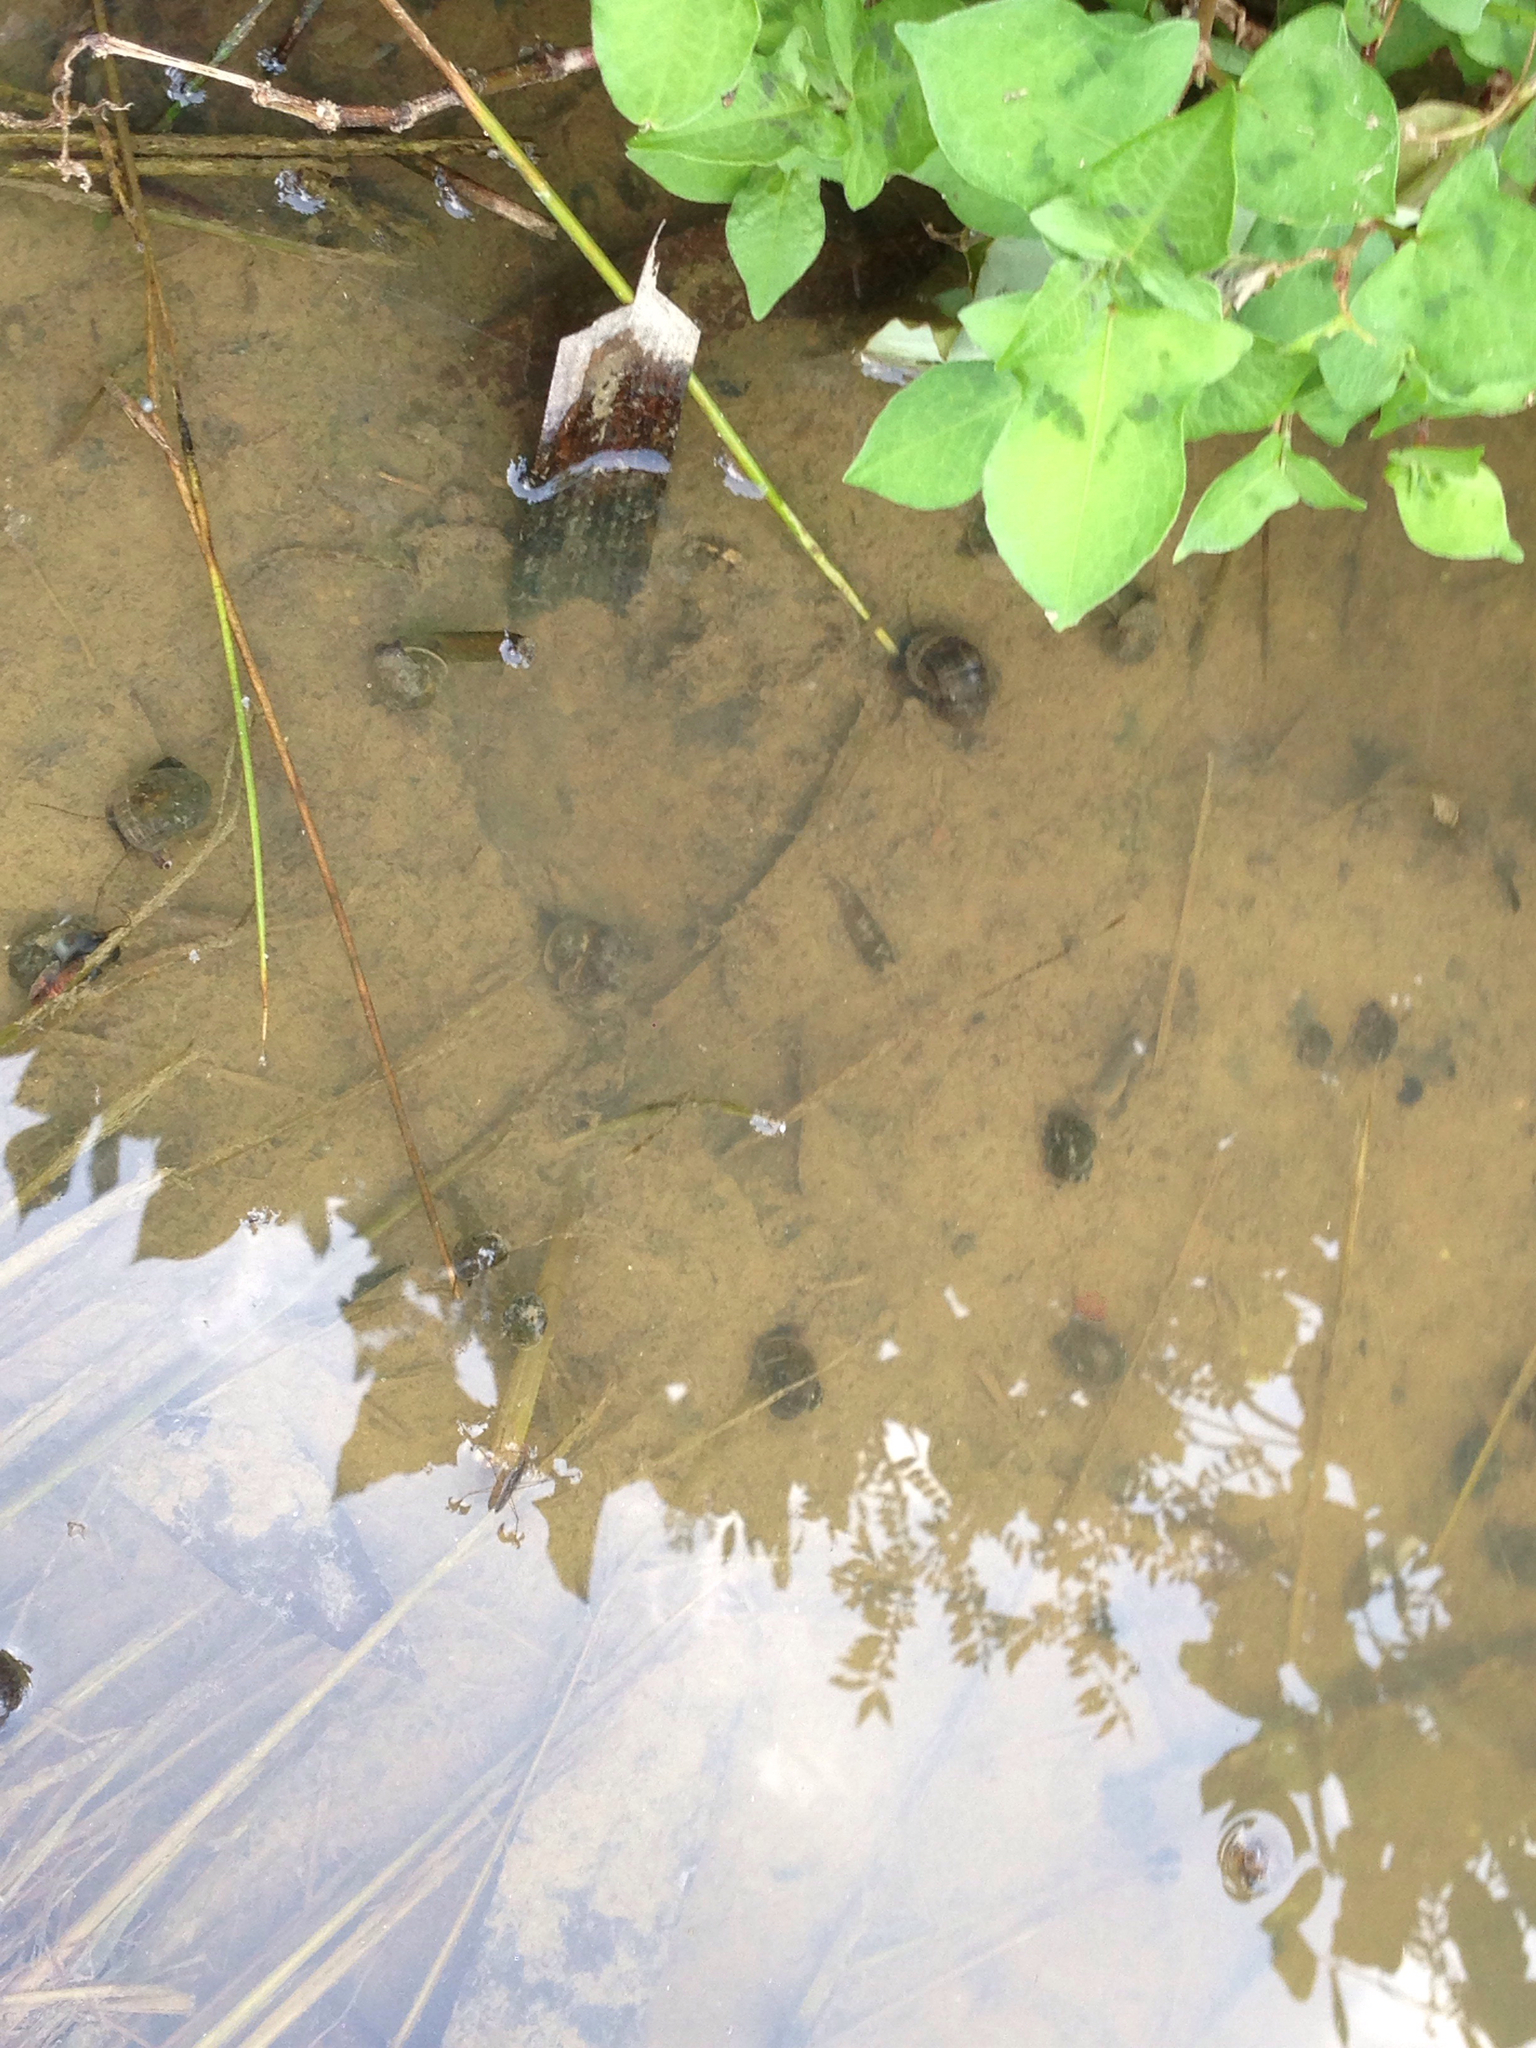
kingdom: Animalia
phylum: Mollusca
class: Gastropoda
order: Architaenioglossa
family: Ampullariidae
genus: Pomacea
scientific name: Pomacea canaliculata
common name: Channeled applesnail
